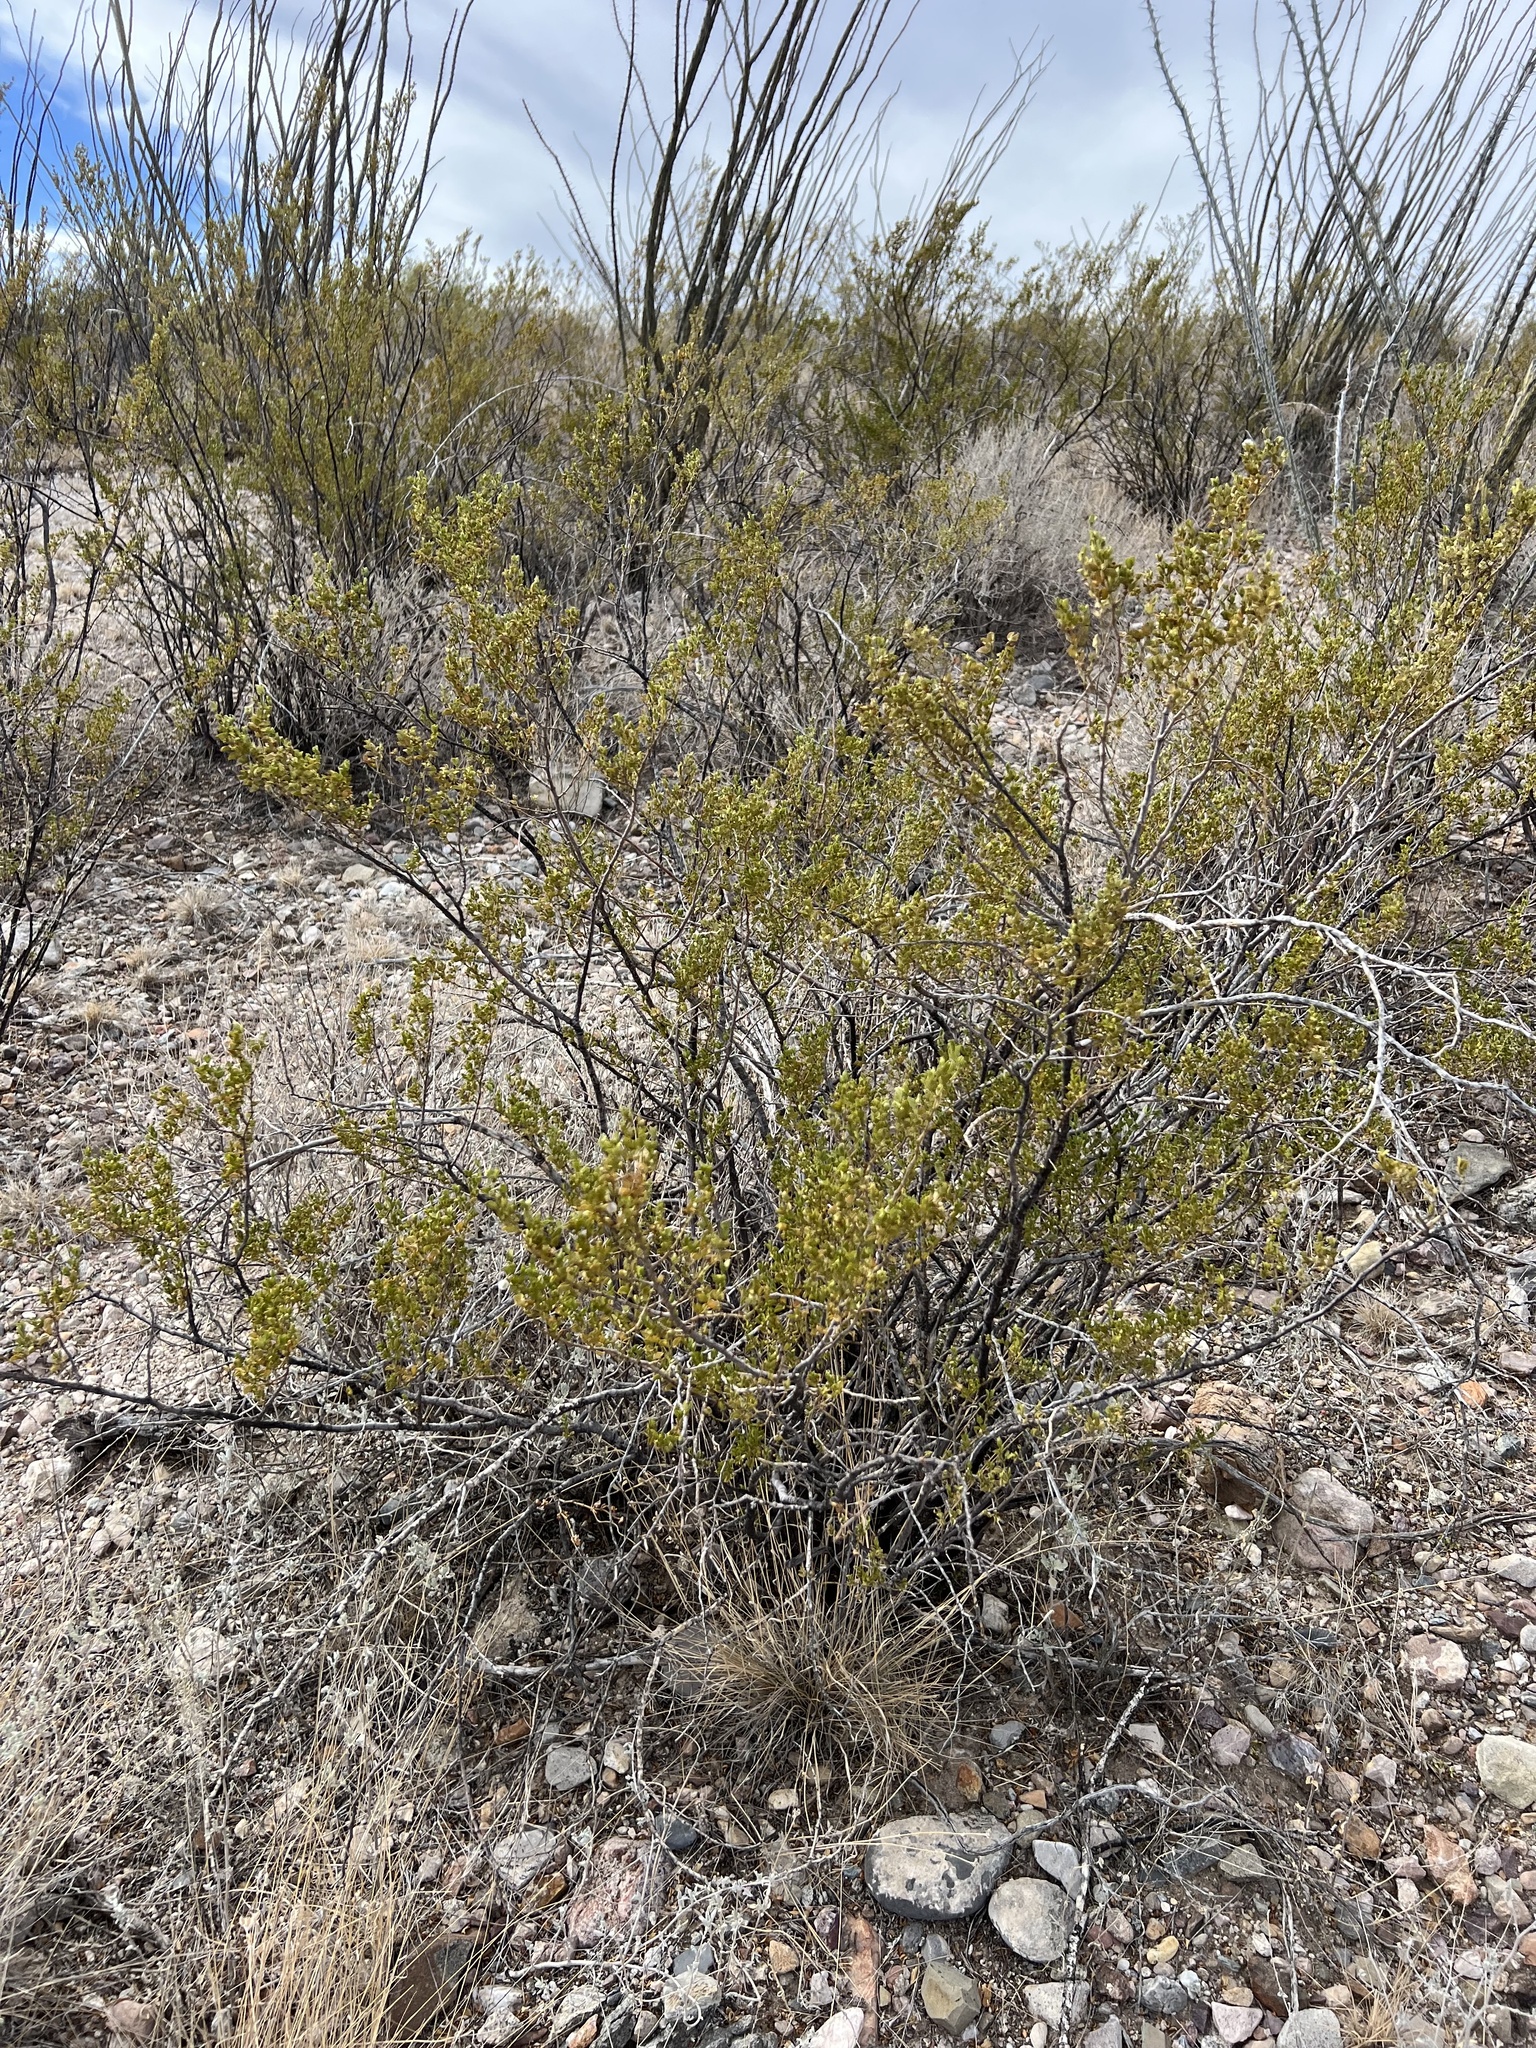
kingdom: Plantae
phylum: Tracheophyta
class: Magnoliopsida
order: Zygophyllales
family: Zygophyllaceae
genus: Larrea
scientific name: Larrea tridentata
